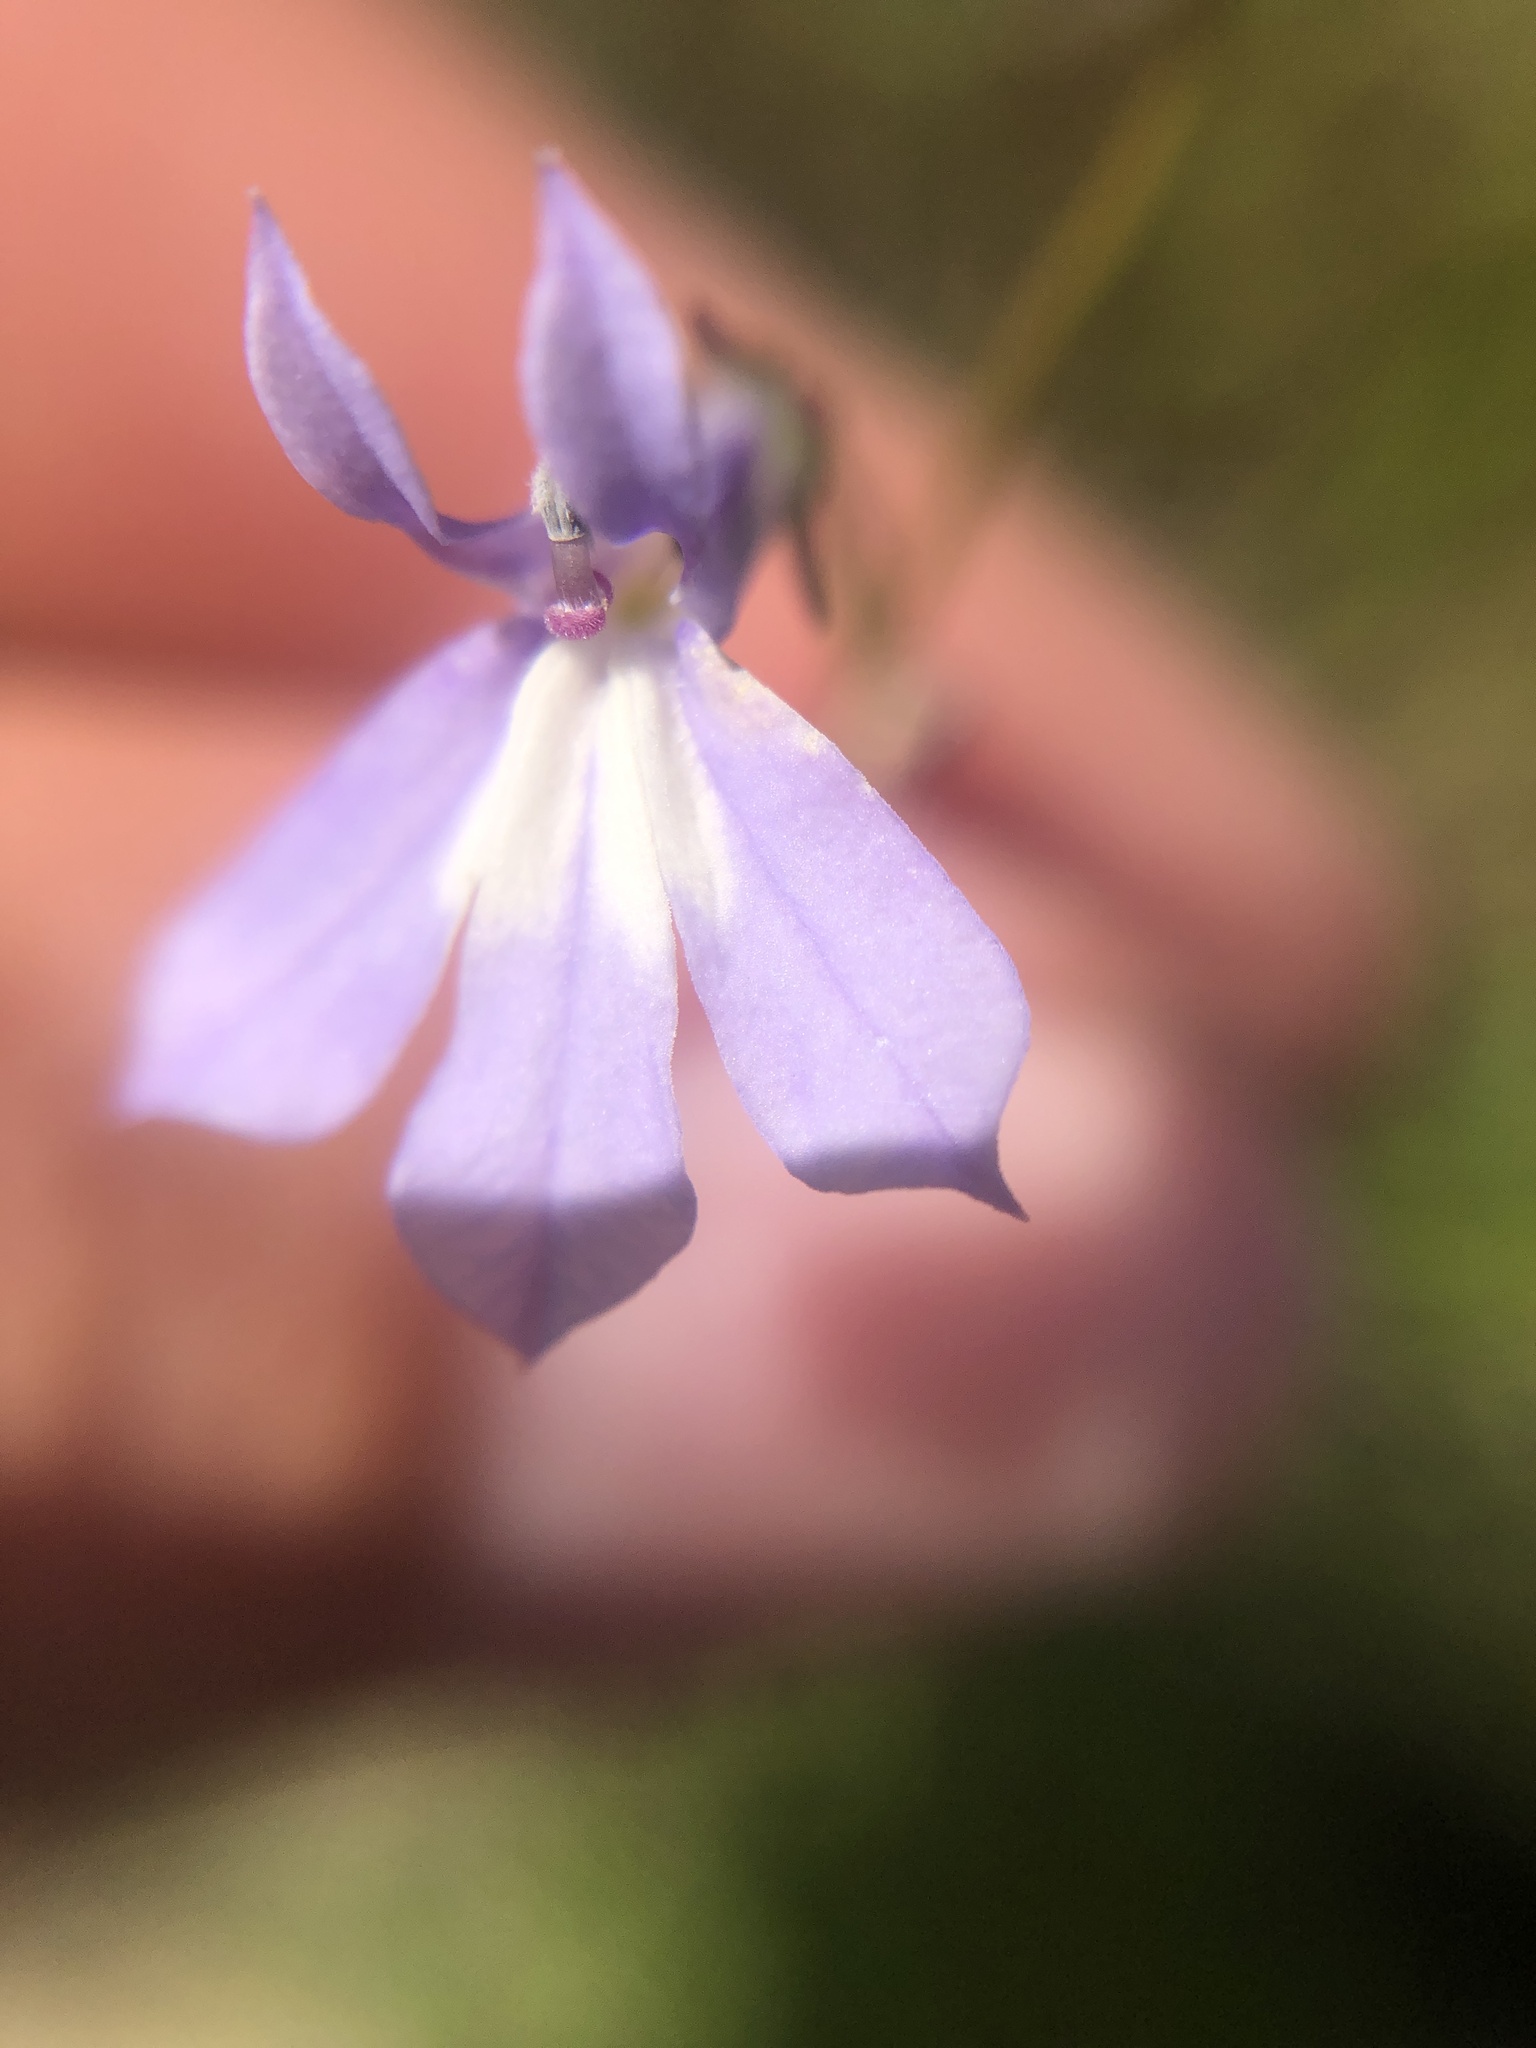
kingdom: Plantae
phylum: Tracheophyta
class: Magnoliopsida
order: Asterales
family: Campanulaceae
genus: Lobelia
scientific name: Lobelia kalmii
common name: Kalm's lobelia
